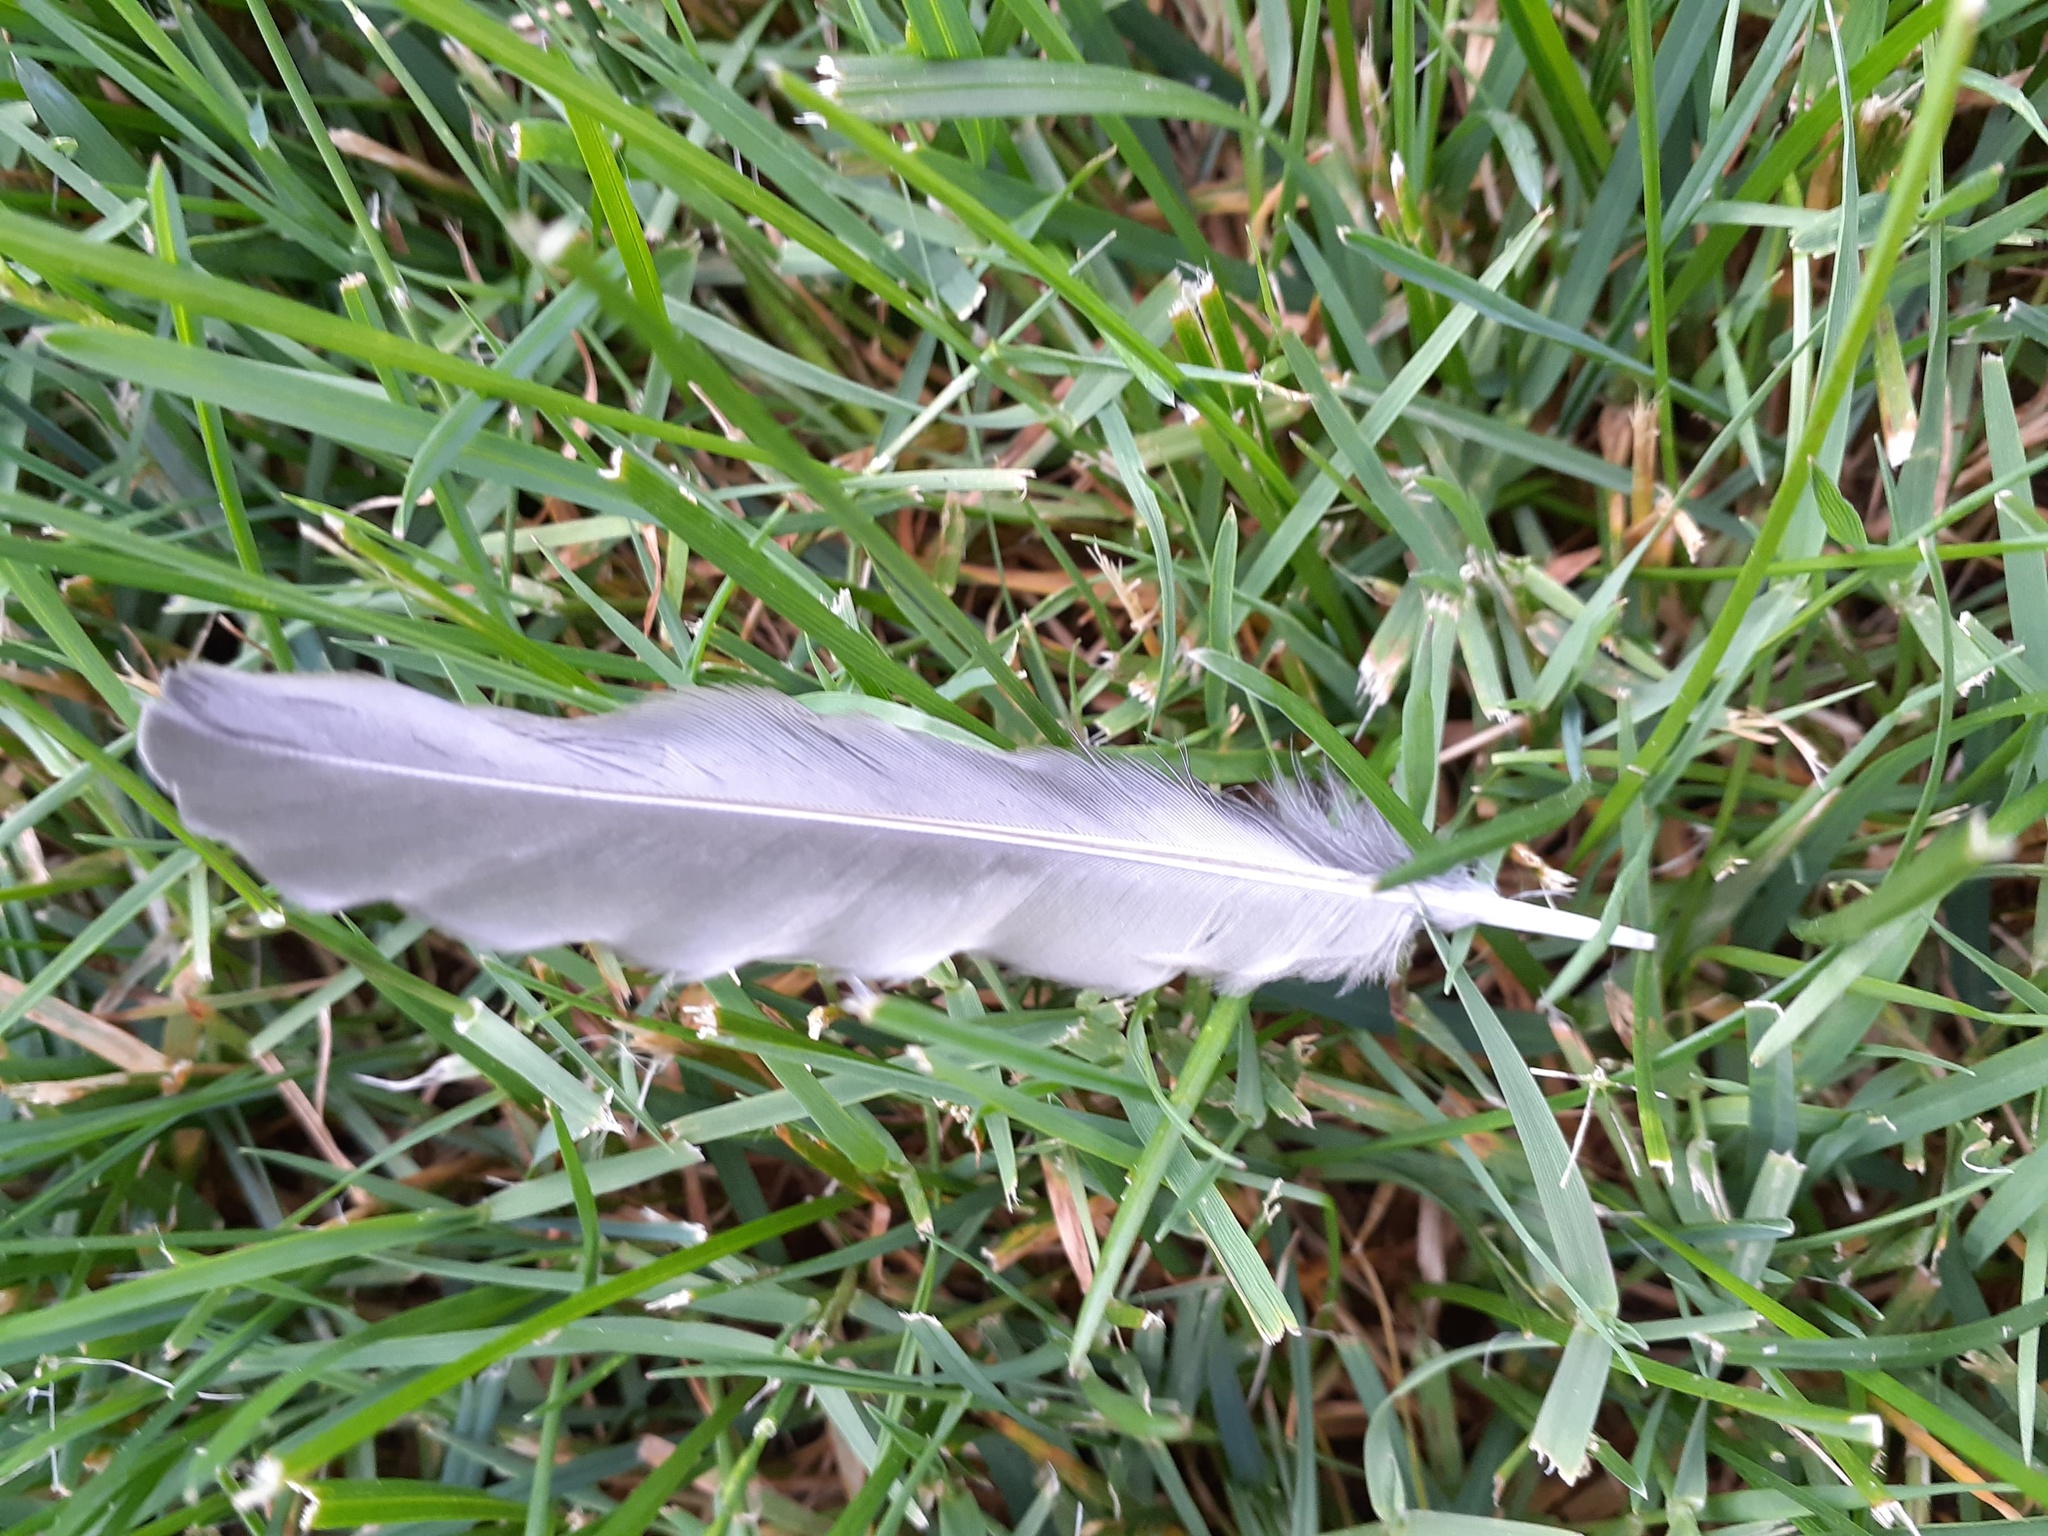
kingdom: Animalia
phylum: Chordata
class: Aves
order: Passeriformes
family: Turdidae
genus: Turdus
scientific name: Turdus migratorius
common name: American robin
